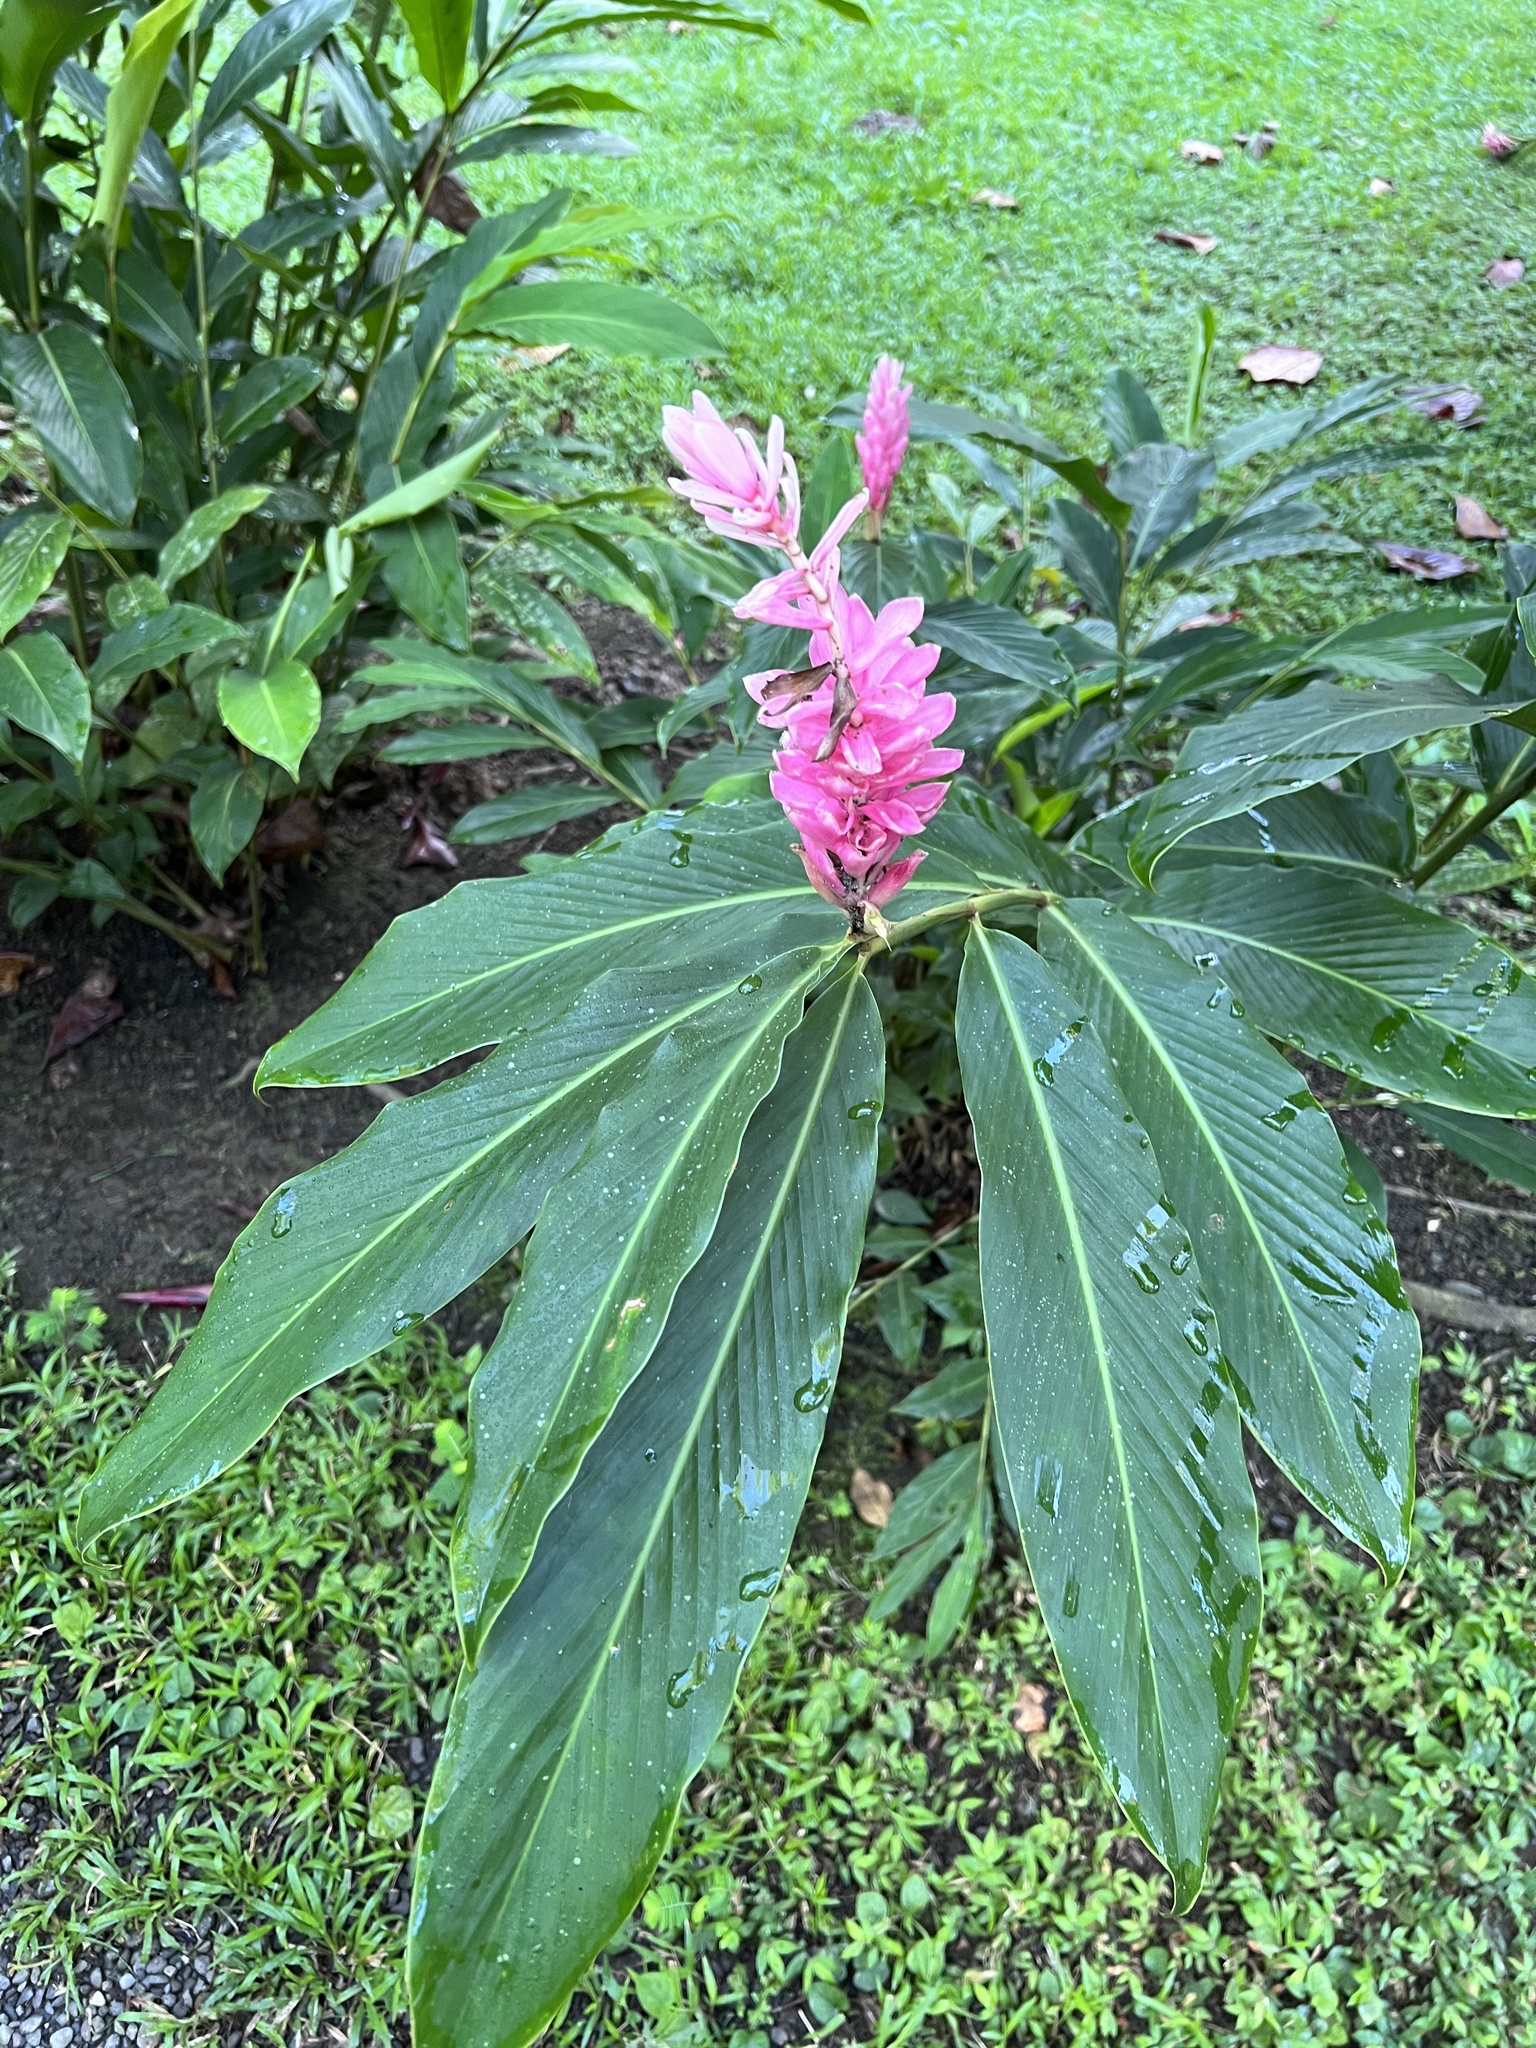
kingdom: Plantae
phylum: Tracheophyta
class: Liliopsida
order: Zingiberales
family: Zingiberaceae
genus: Alpinia
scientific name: Alpinia purpurata
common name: Red ginger
